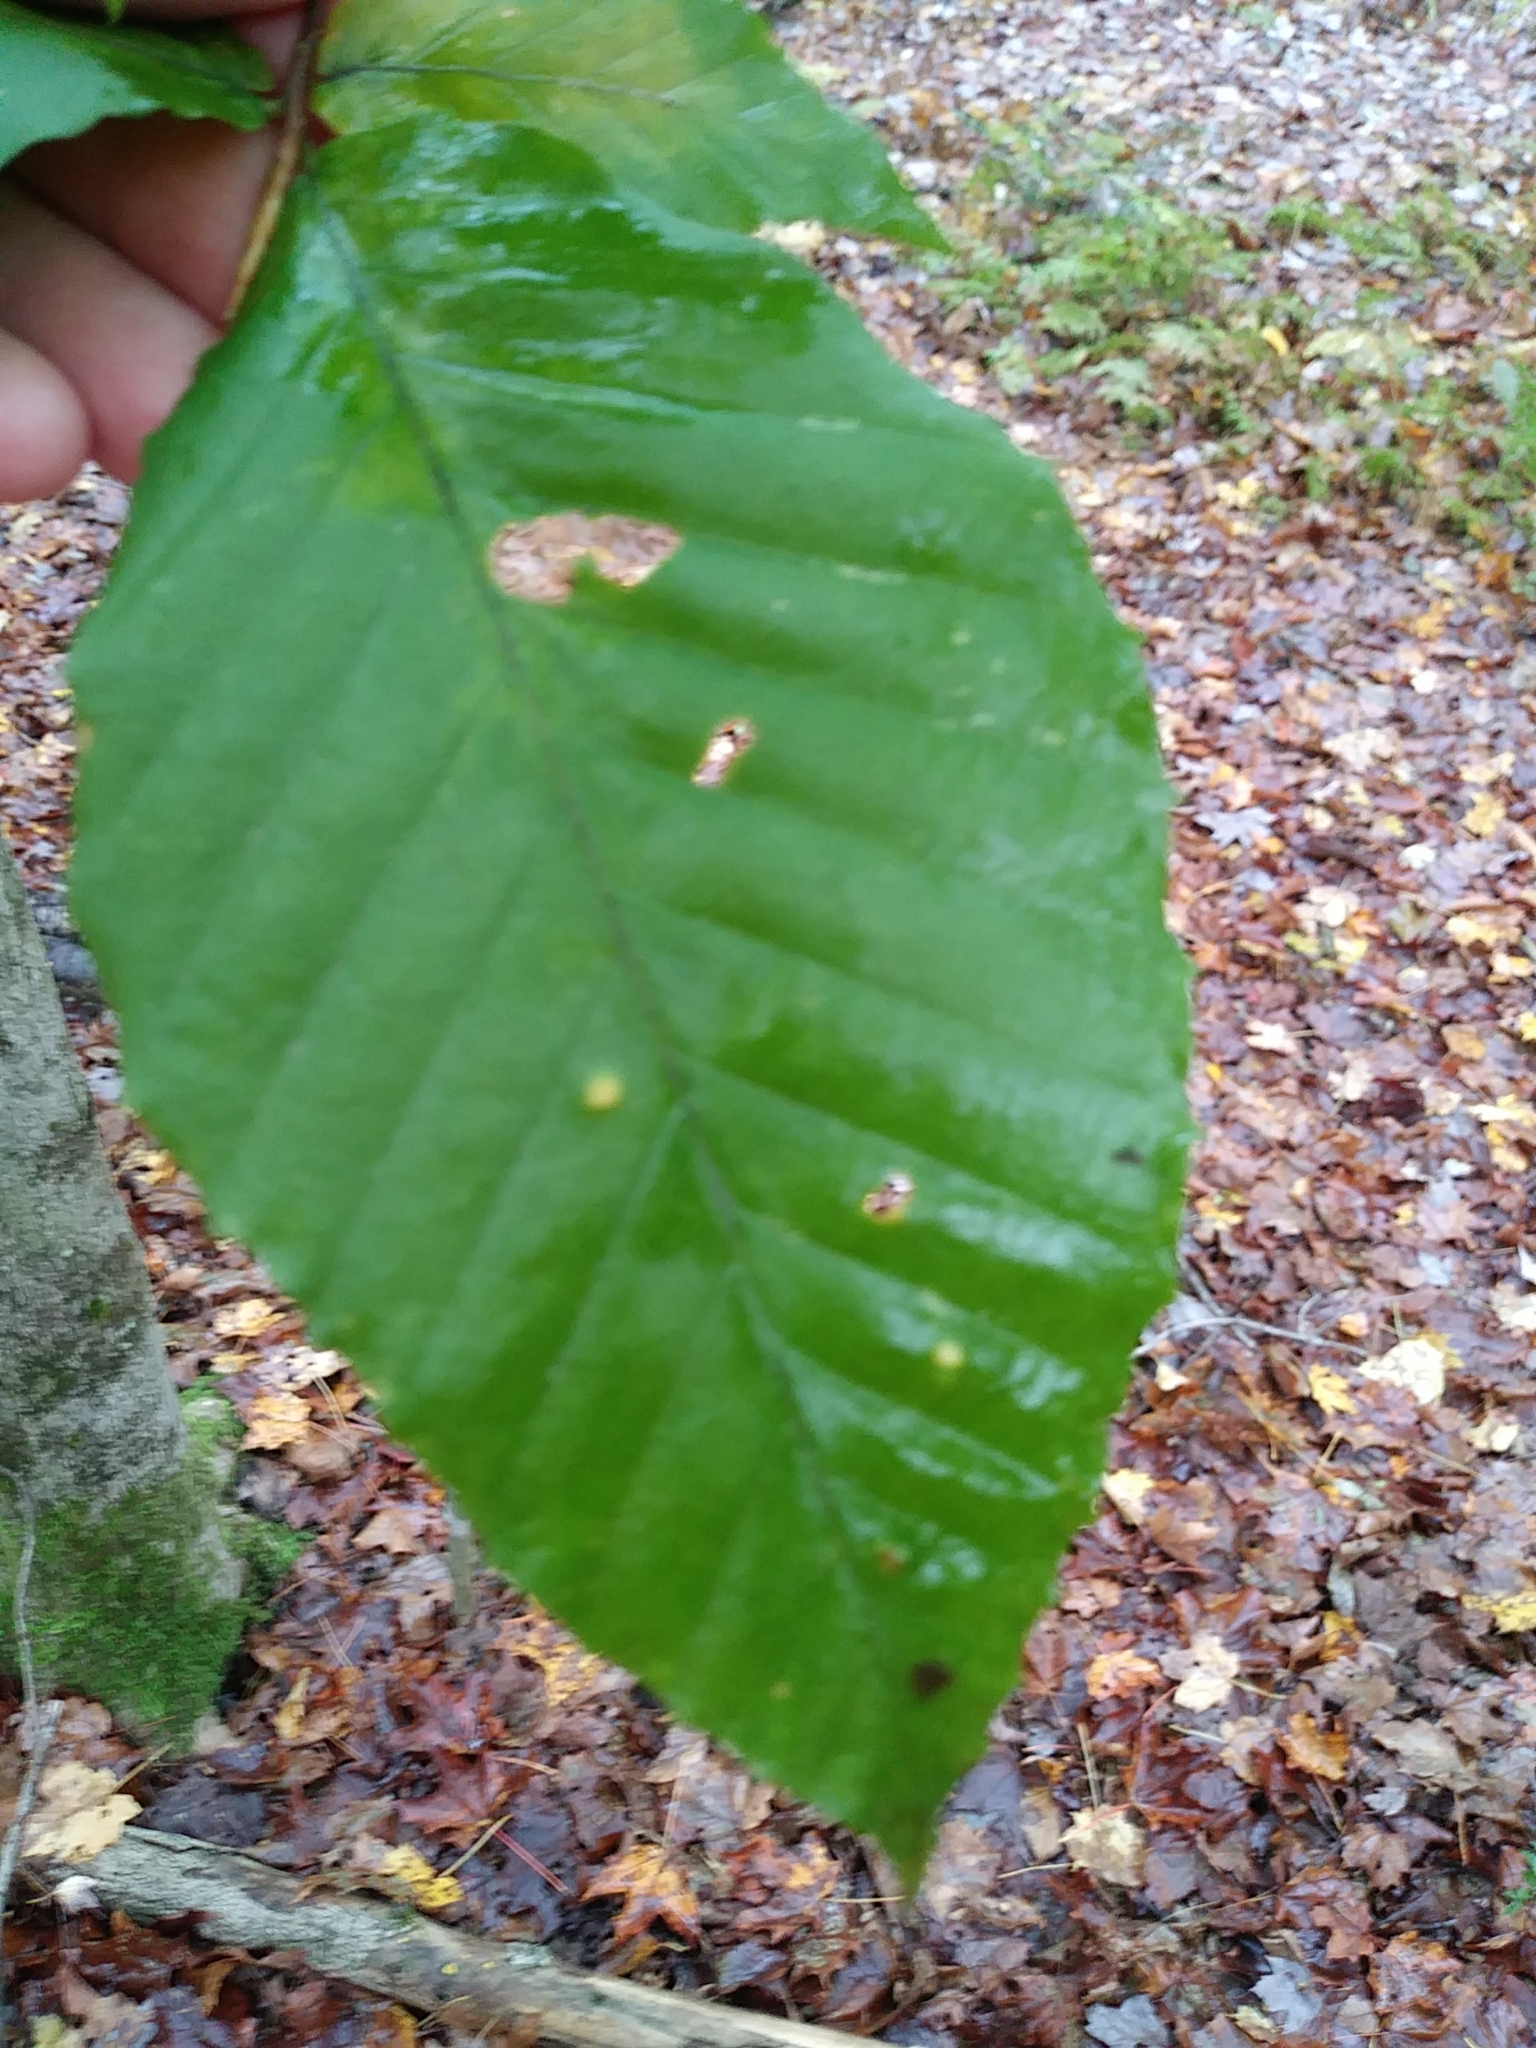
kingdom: Plantae
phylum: Tracheophyta
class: Magnoliopsida
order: Fagales
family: Fagaceae
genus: Fagus
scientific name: Fagus grandifolia
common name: American beech
